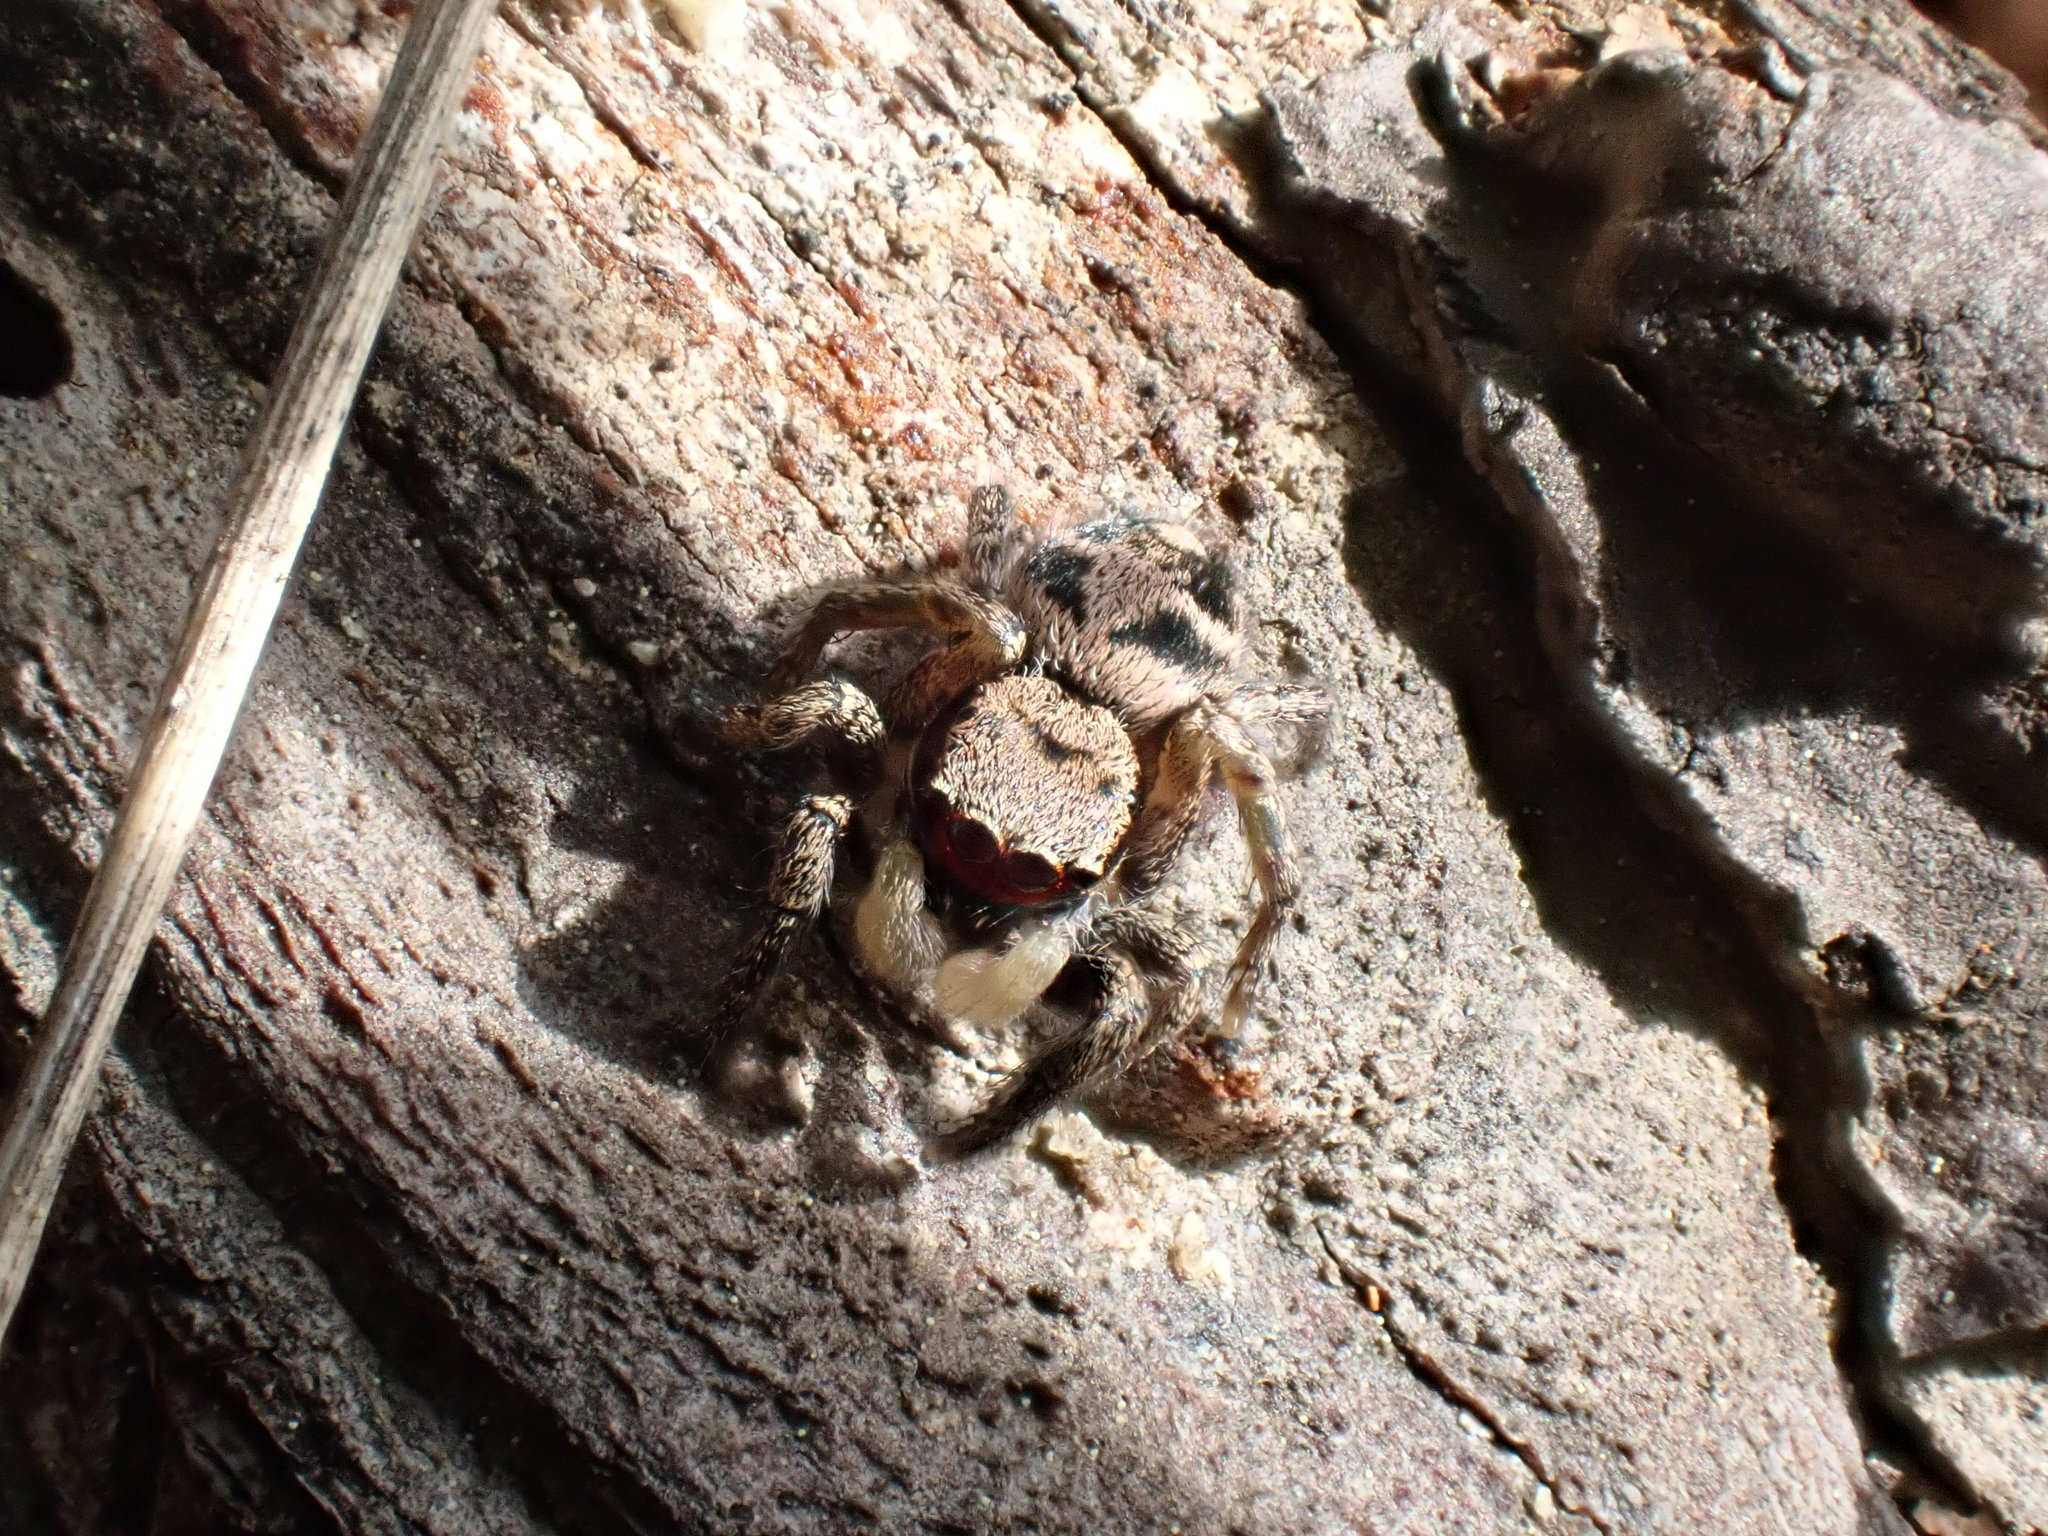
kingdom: Animalia
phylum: Arthropoda
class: Arachnida
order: Araneae
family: Salticidae
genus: Habronattus
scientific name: Habronattus coecatus
